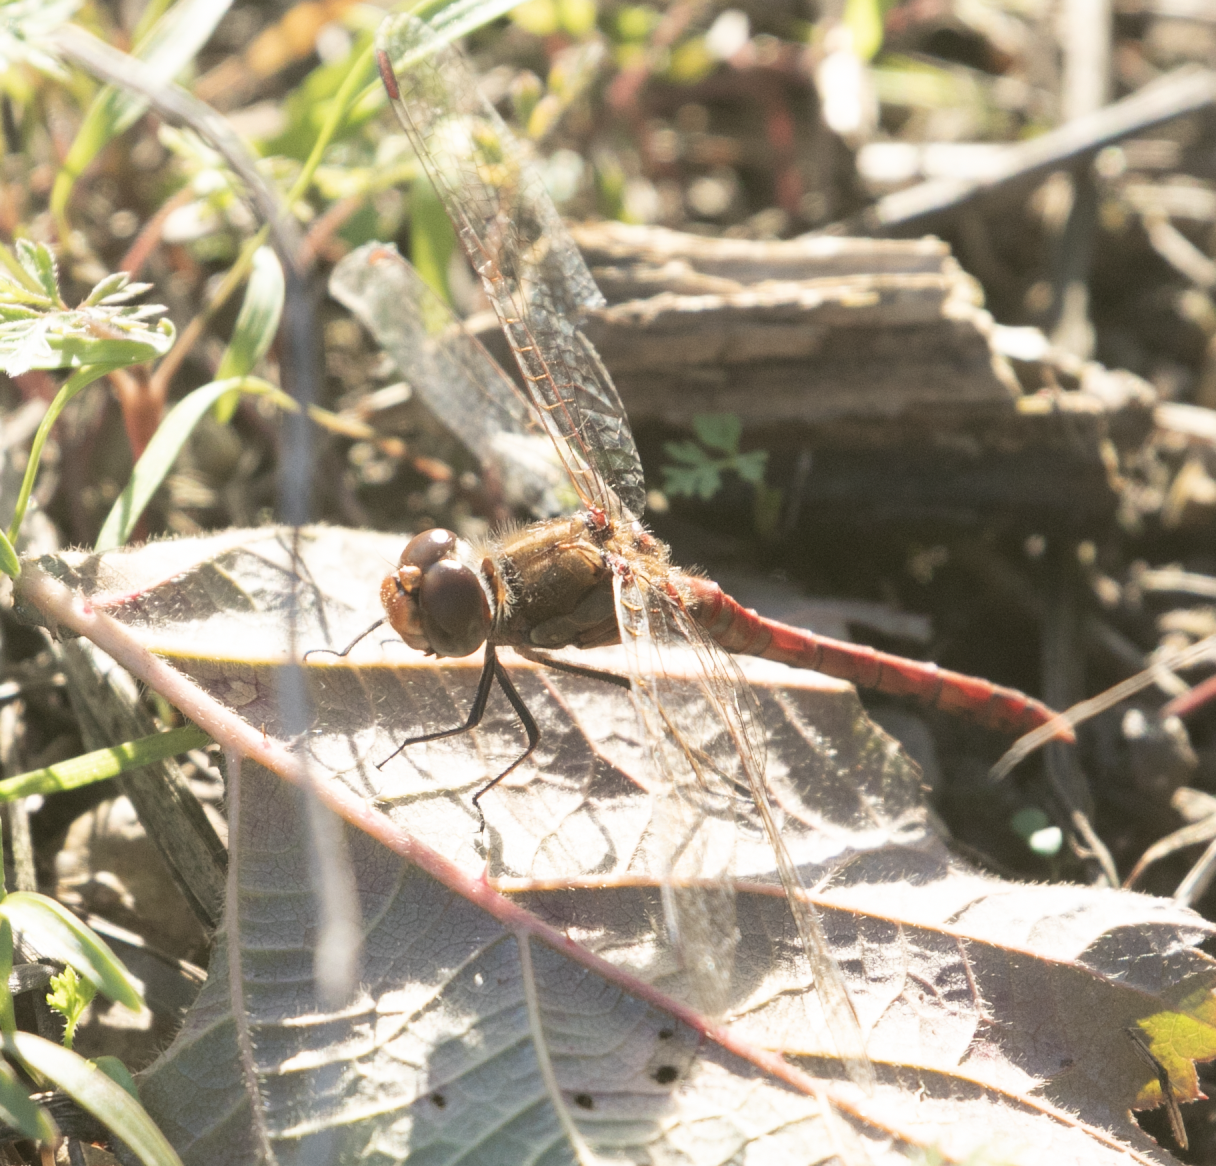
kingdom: Animalia
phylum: Arthropoda
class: Insecta
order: Odonata
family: Libellulidae
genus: Sympetrum
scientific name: Sympetrum striolatum
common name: Common darter
